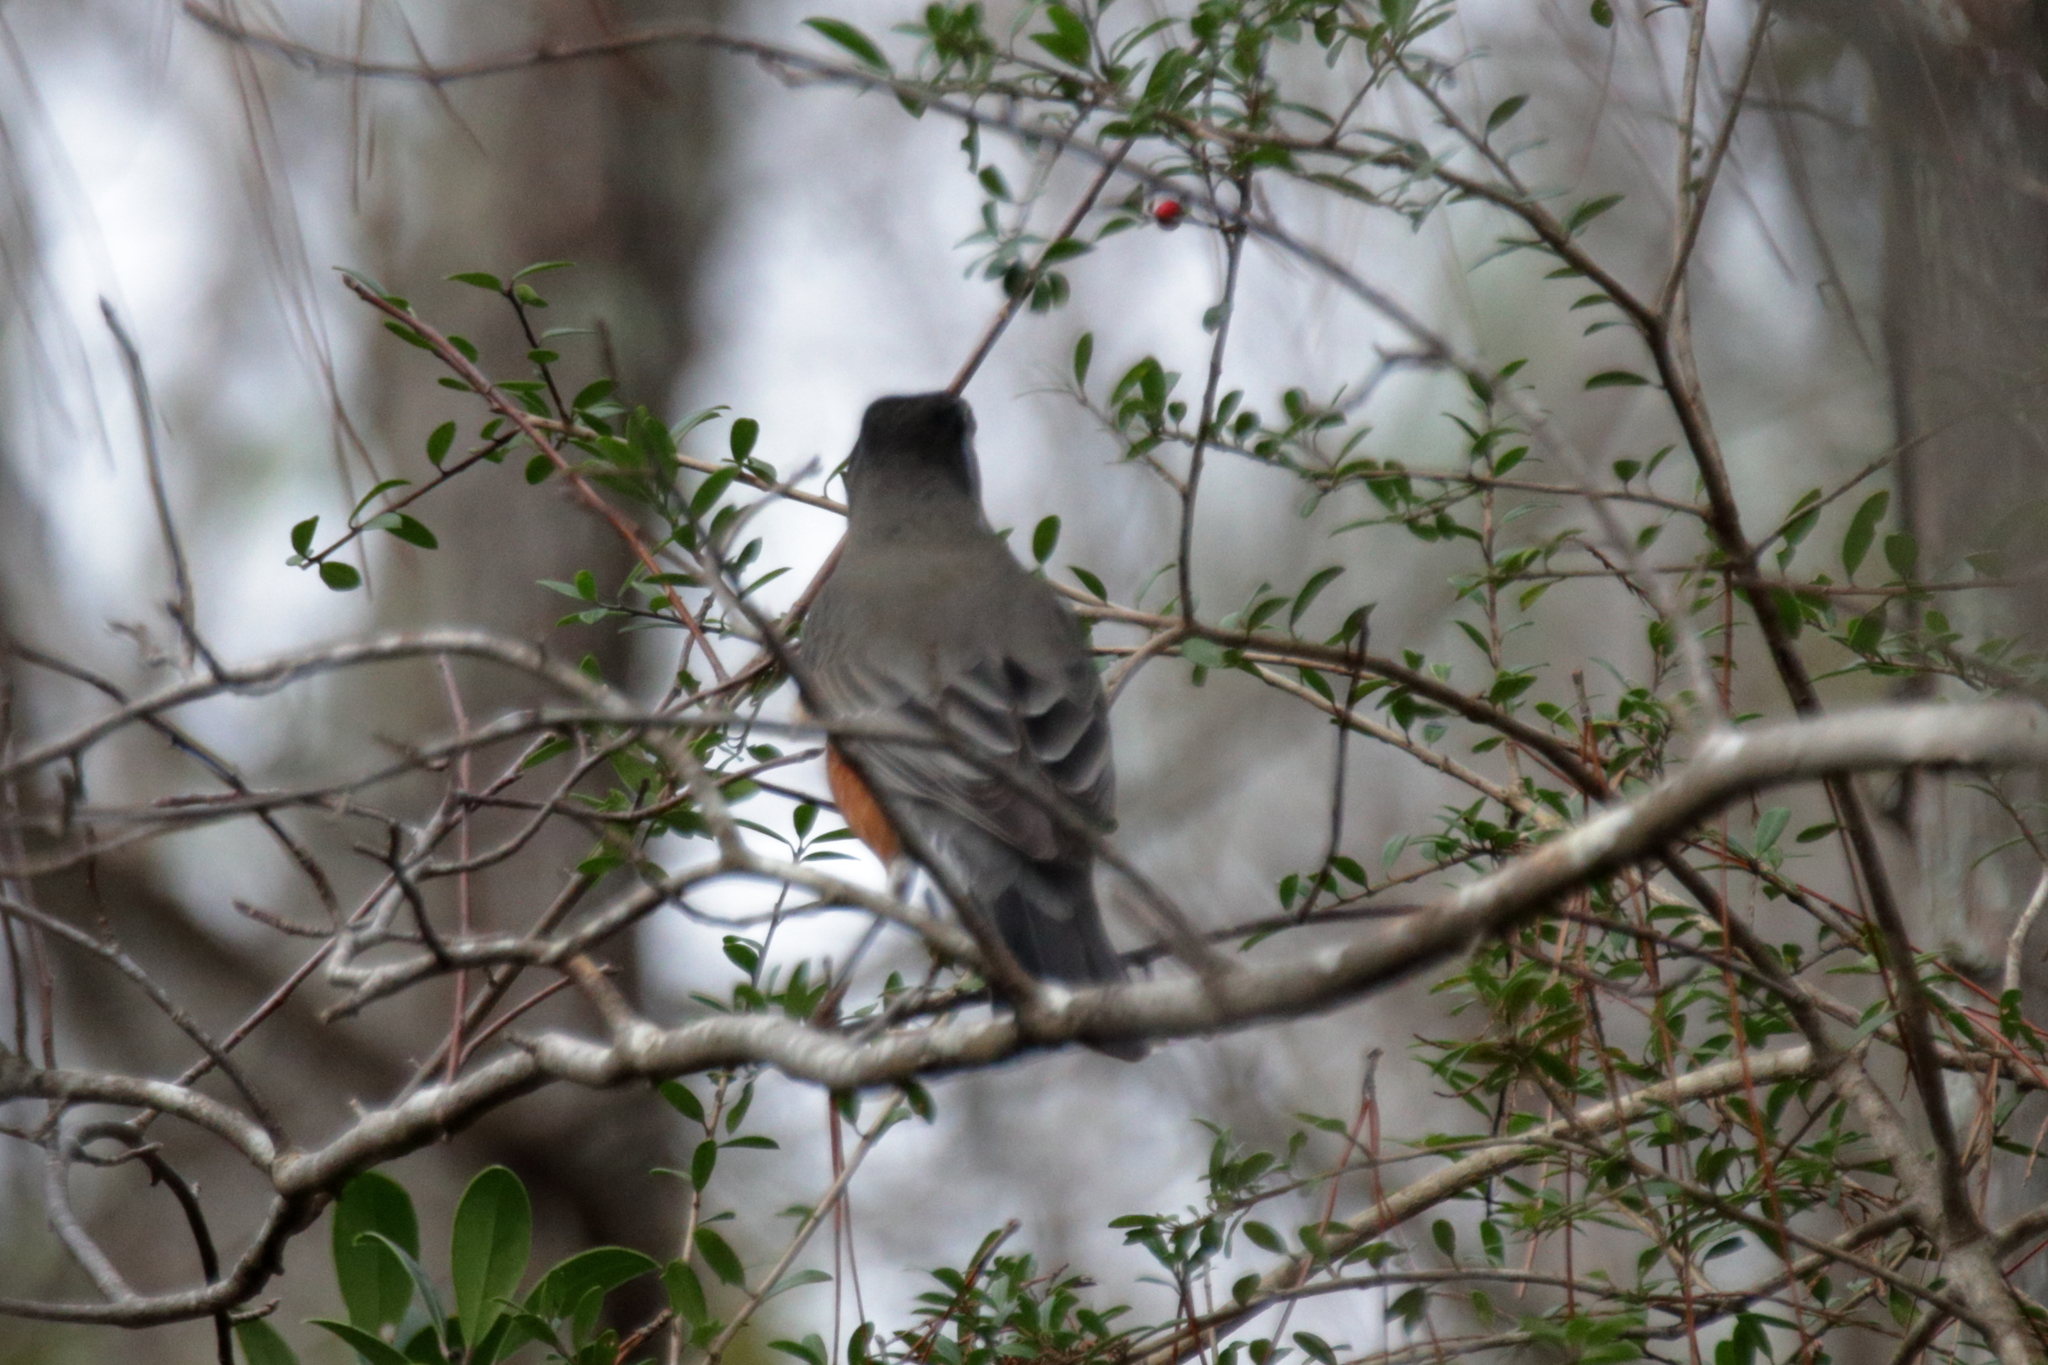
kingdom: Animalia
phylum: Chordata
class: Aves
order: Passeriformes
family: Turdidae
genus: Turdus
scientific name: Turdus migratorius
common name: American robin
